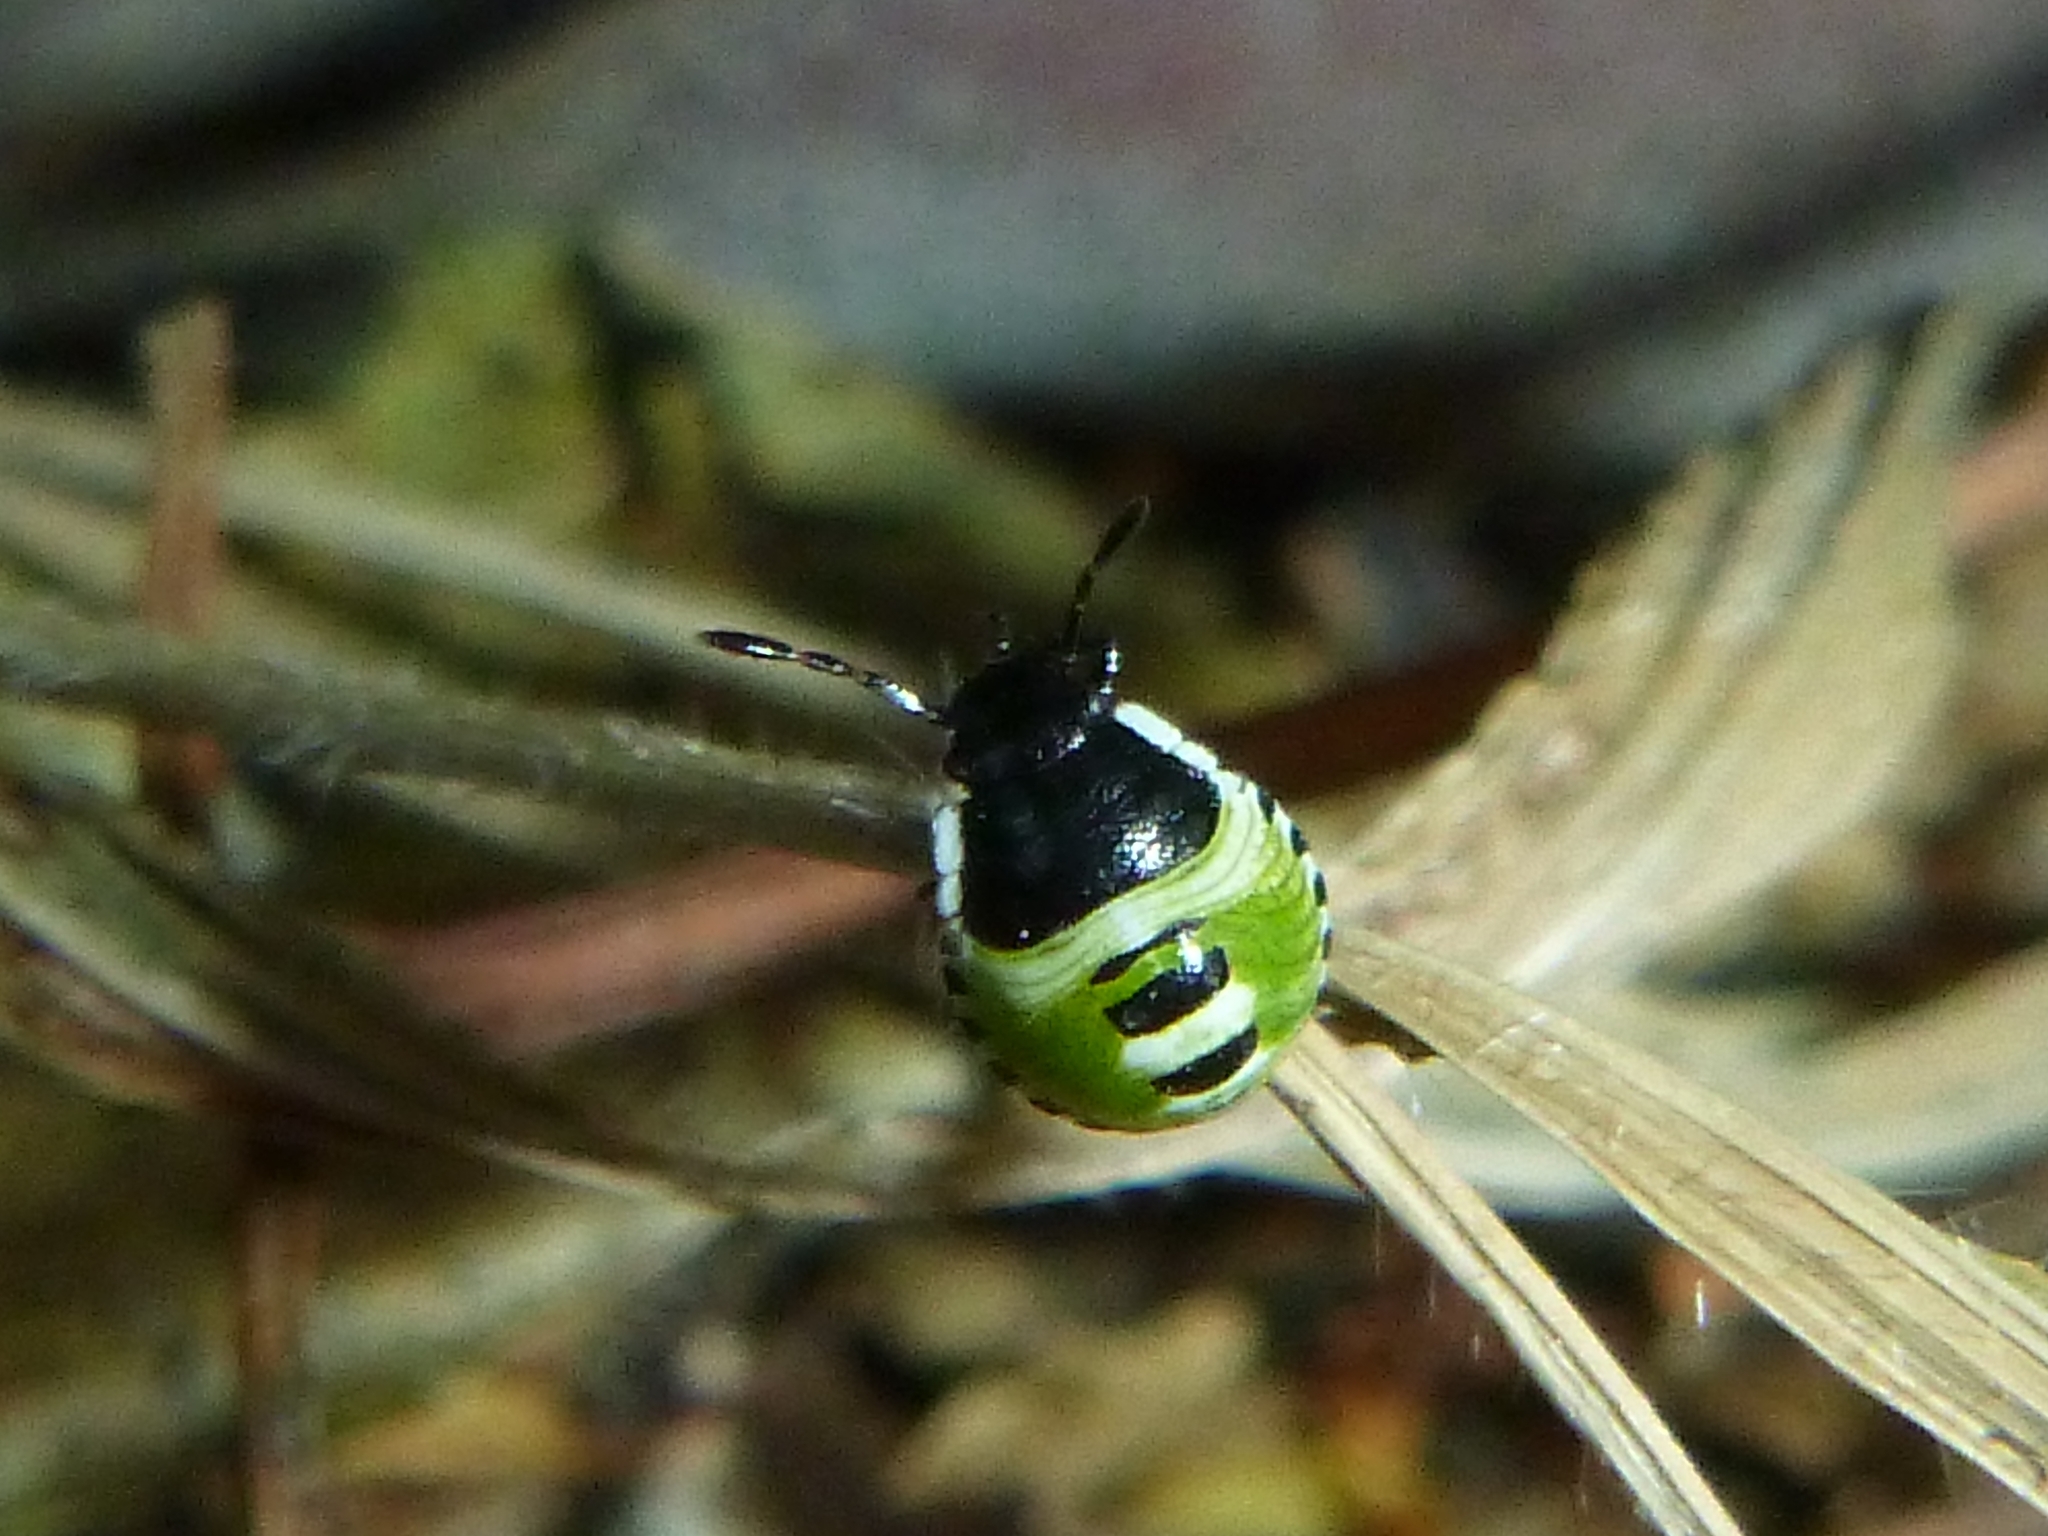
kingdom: Animalia
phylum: Arthropoda
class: Insecta
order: Hemiptera
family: Pentatomidae
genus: Palomena
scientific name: Palomena prasina
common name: Green shieldbug
